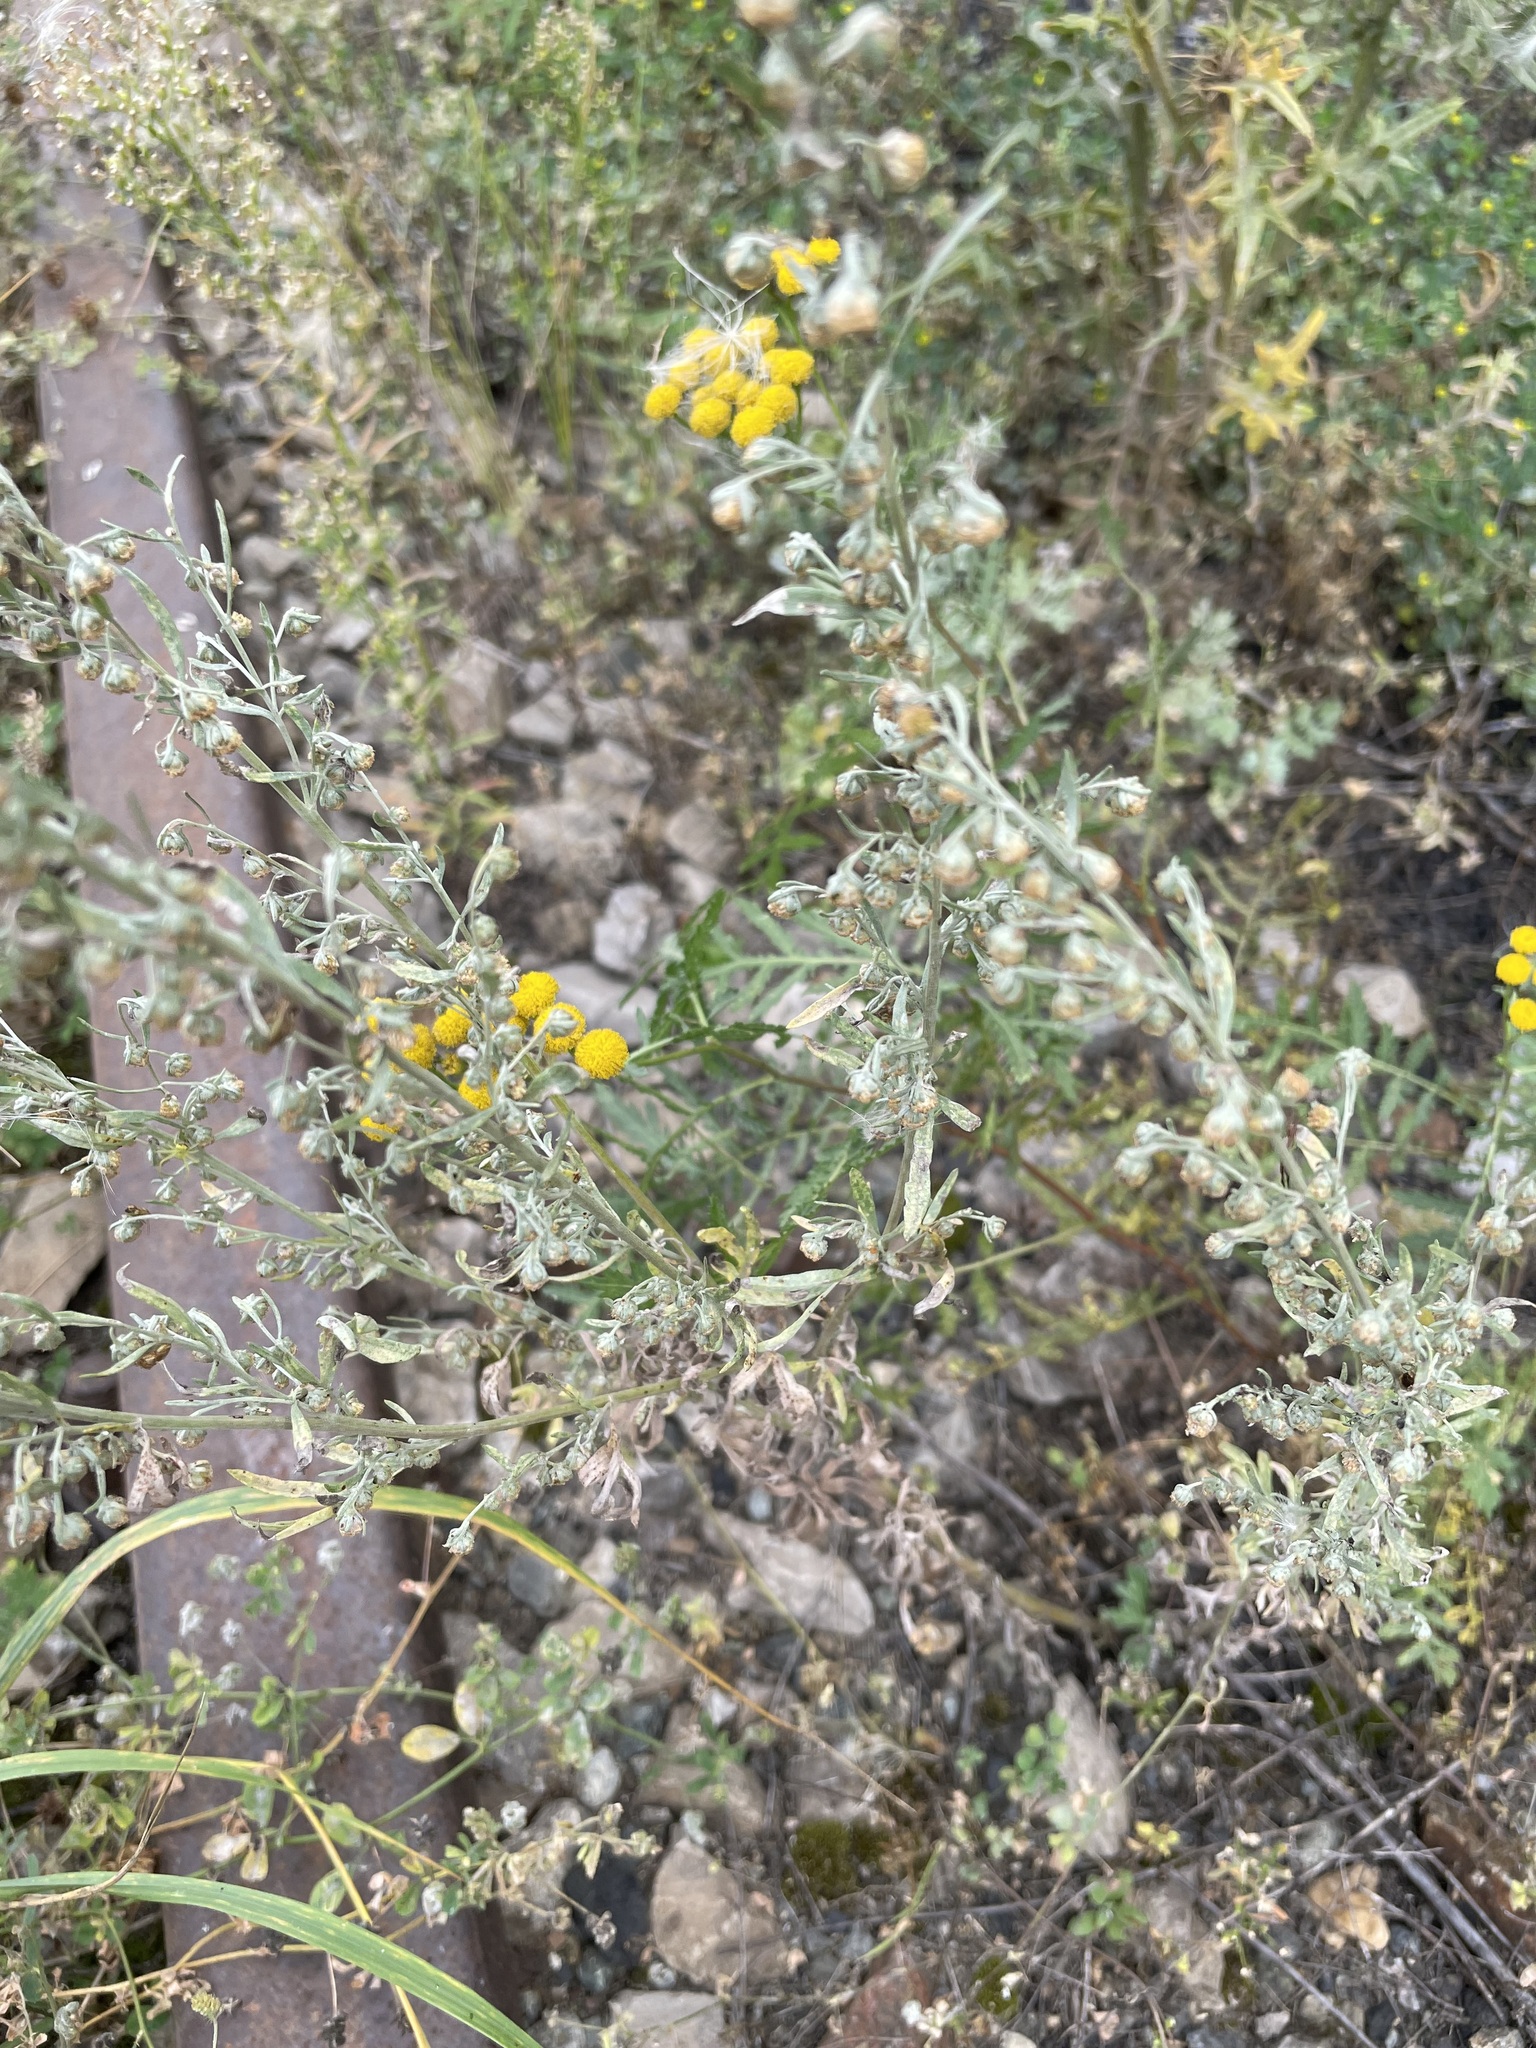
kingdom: Plantae
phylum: Tracheophyta
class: Magnoliopsida
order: Asterales
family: Asteraceae
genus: Artemisia
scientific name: Artemisia sieversiana
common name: Sieversian wormwood
